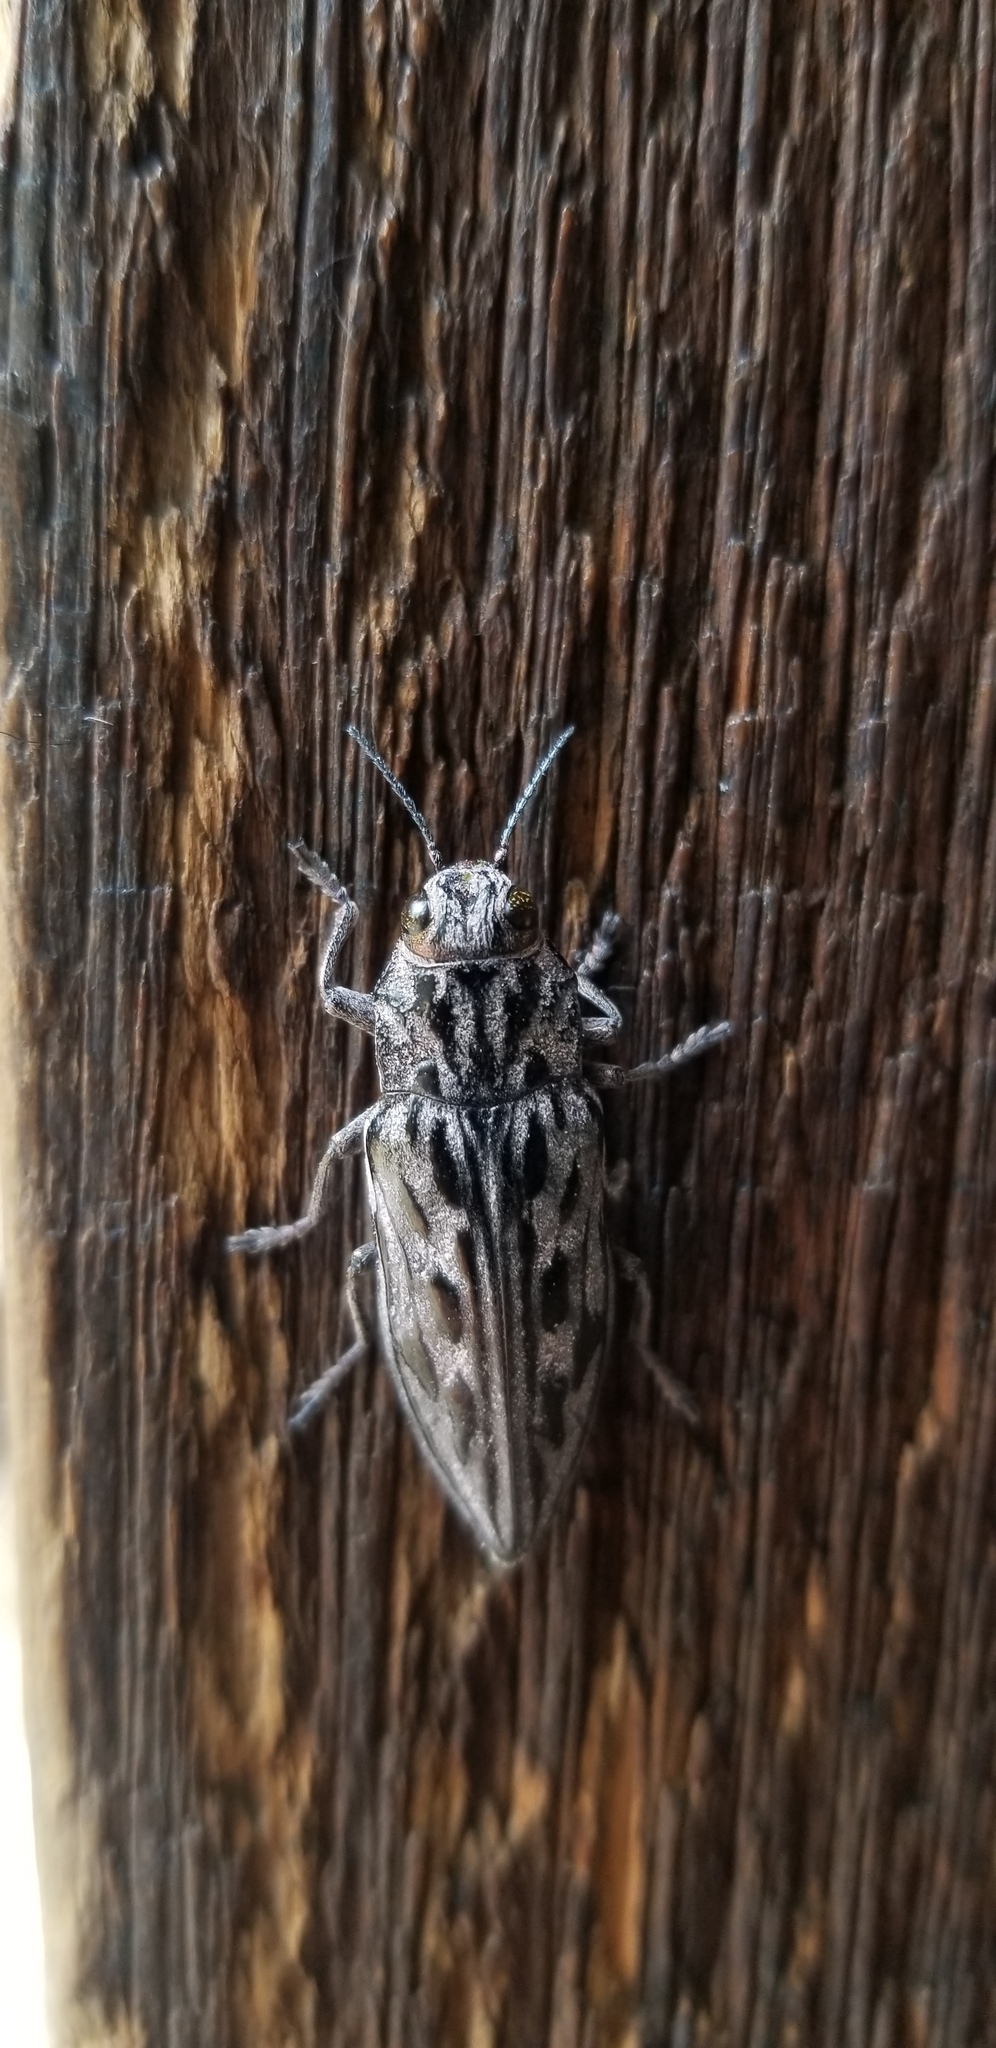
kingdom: Animalia
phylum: Arthropoda
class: Insecta
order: Coleoptera
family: Buprestidae
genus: Chalcophora
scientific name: Chalcophora angulicollis
